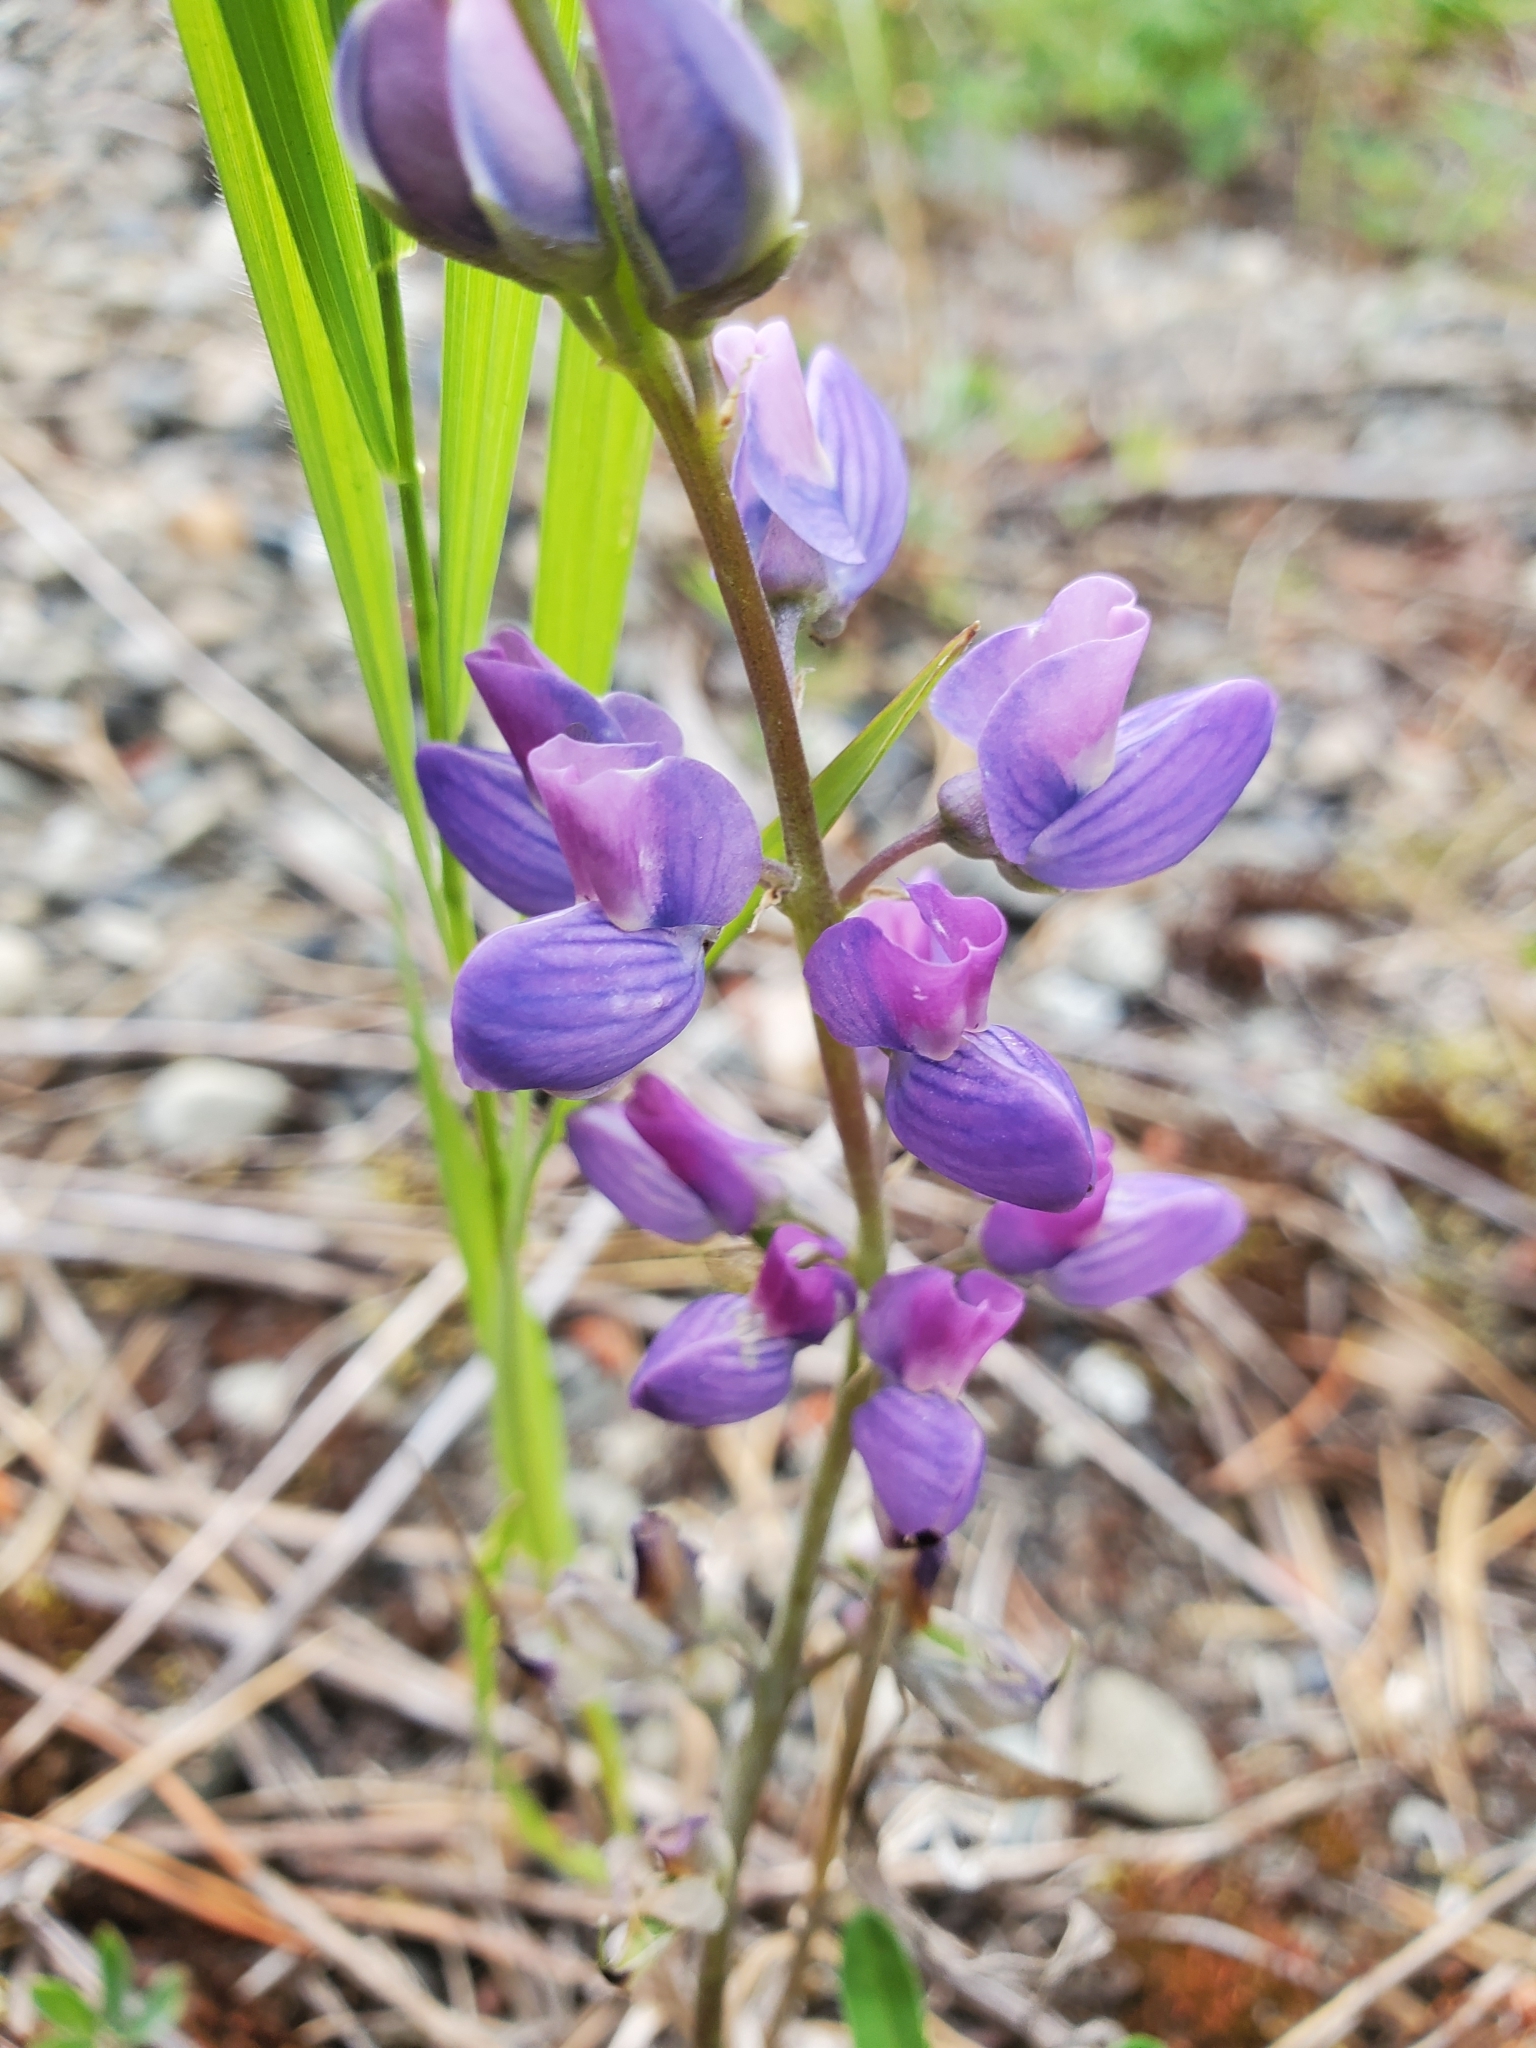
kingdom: Plantae
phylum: Tracheophyta
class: Magnoliopsida
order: Fabales
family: Fabaceae
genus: Lupinus
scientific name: Lupinus latifolius
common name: Broad-leaved lupine
